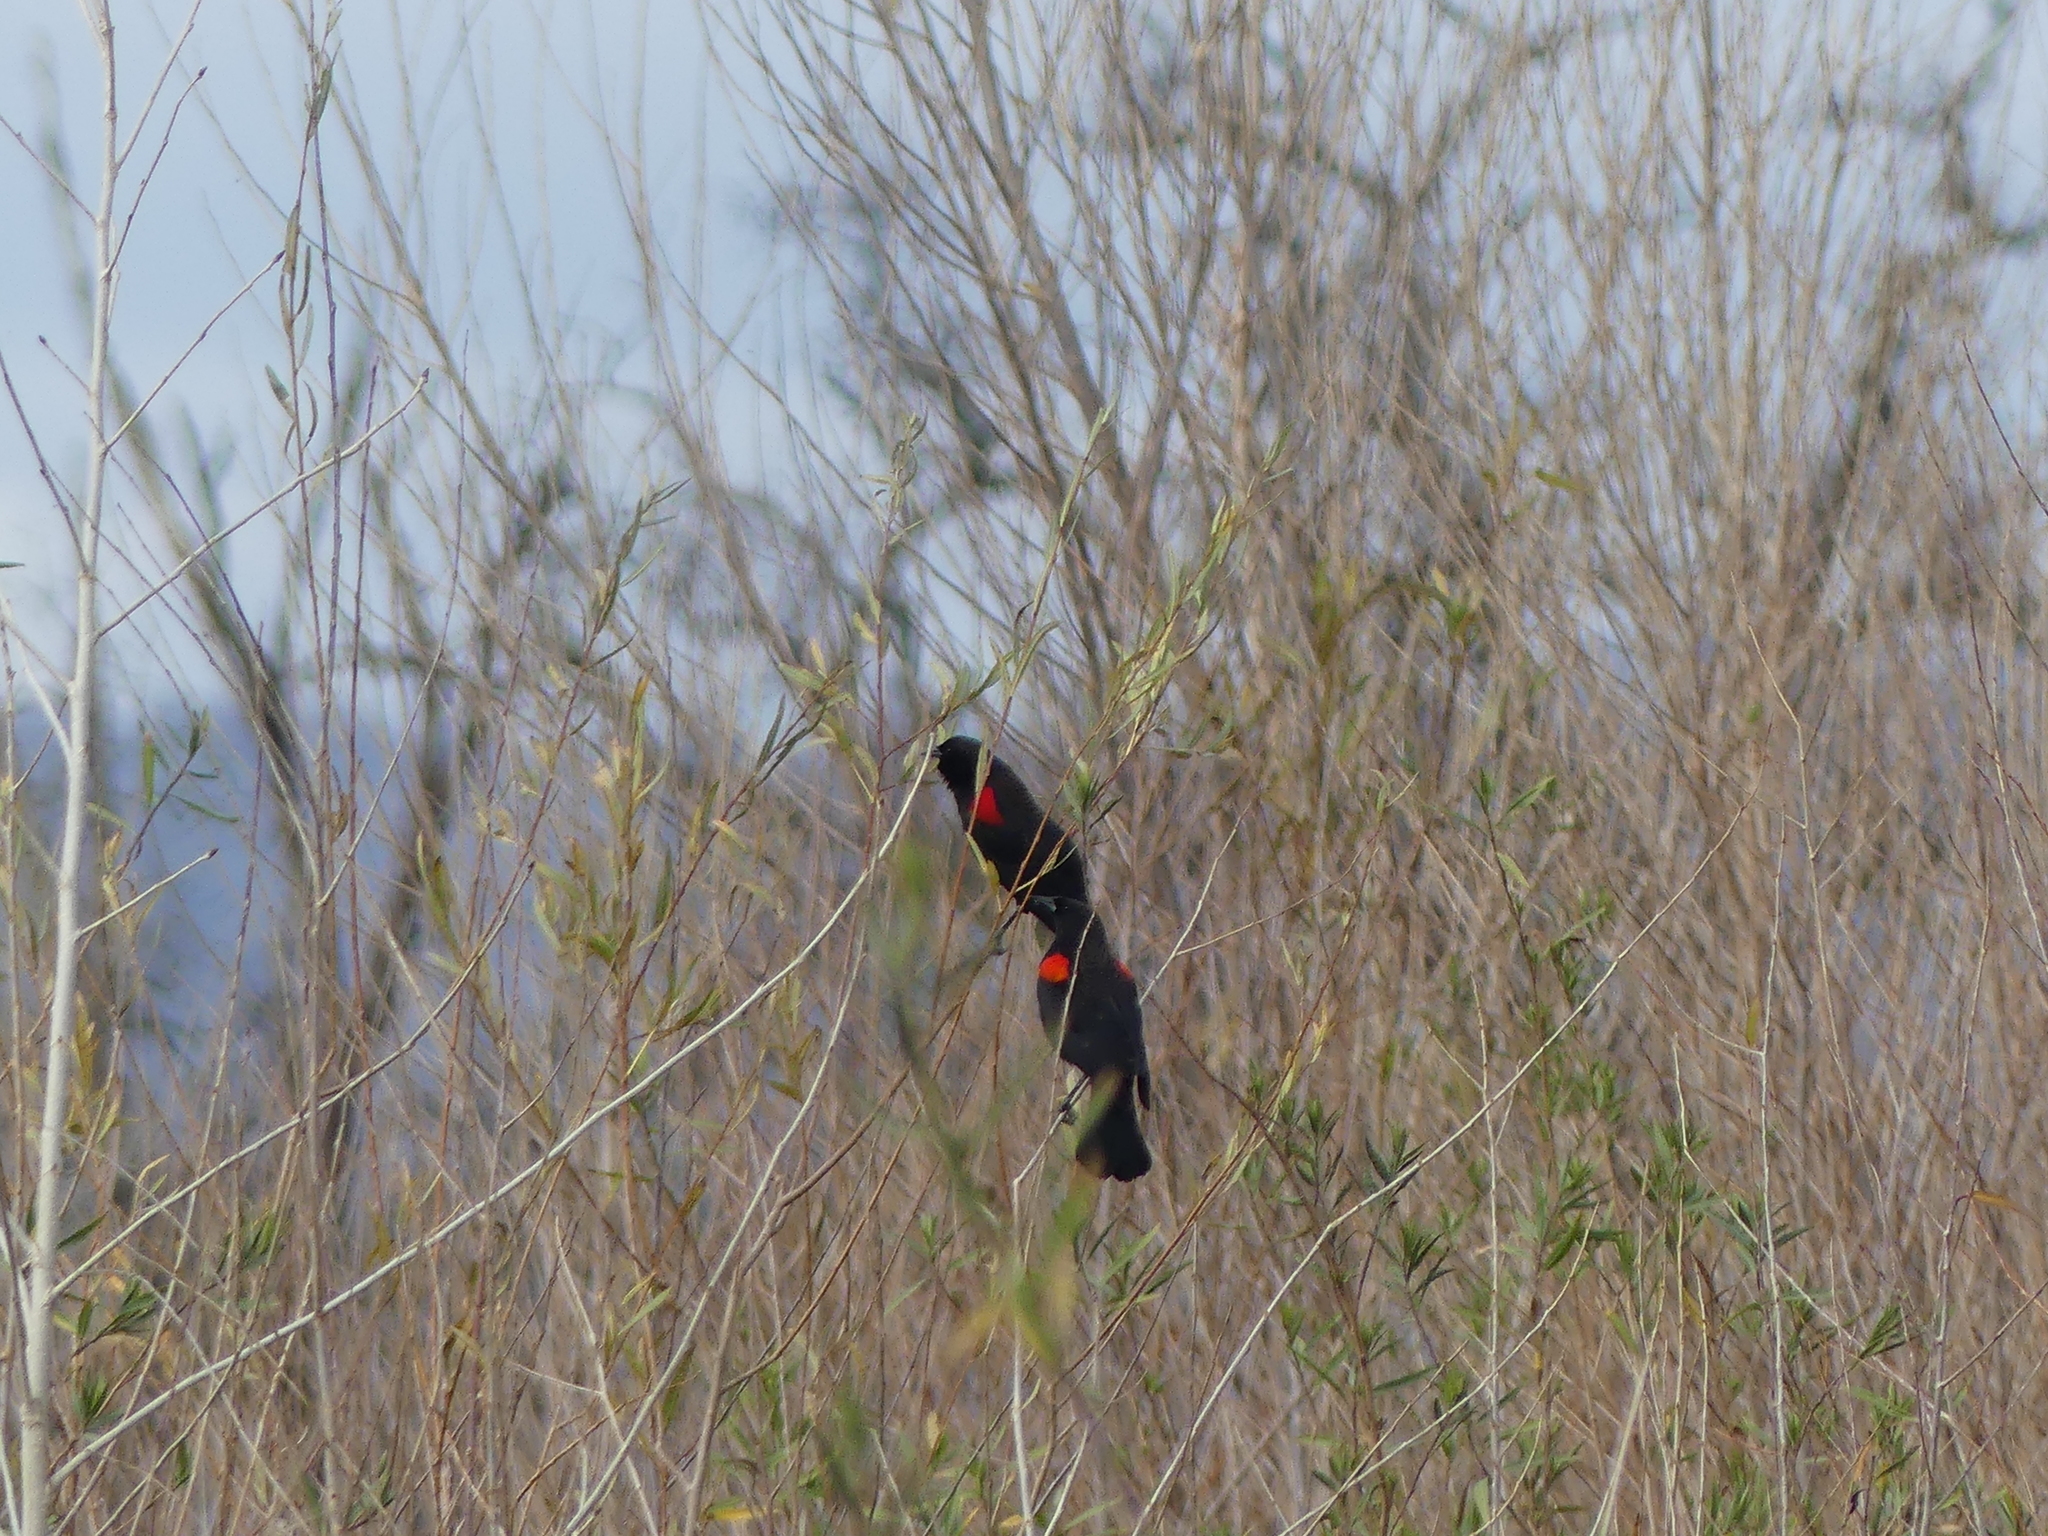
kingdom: Animalia
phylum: Chordata
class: Aves
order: Passeriformes
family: Icteridae
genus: Agelaius
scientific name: Agelaius phoeniceus
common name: Red-winged blackbird
